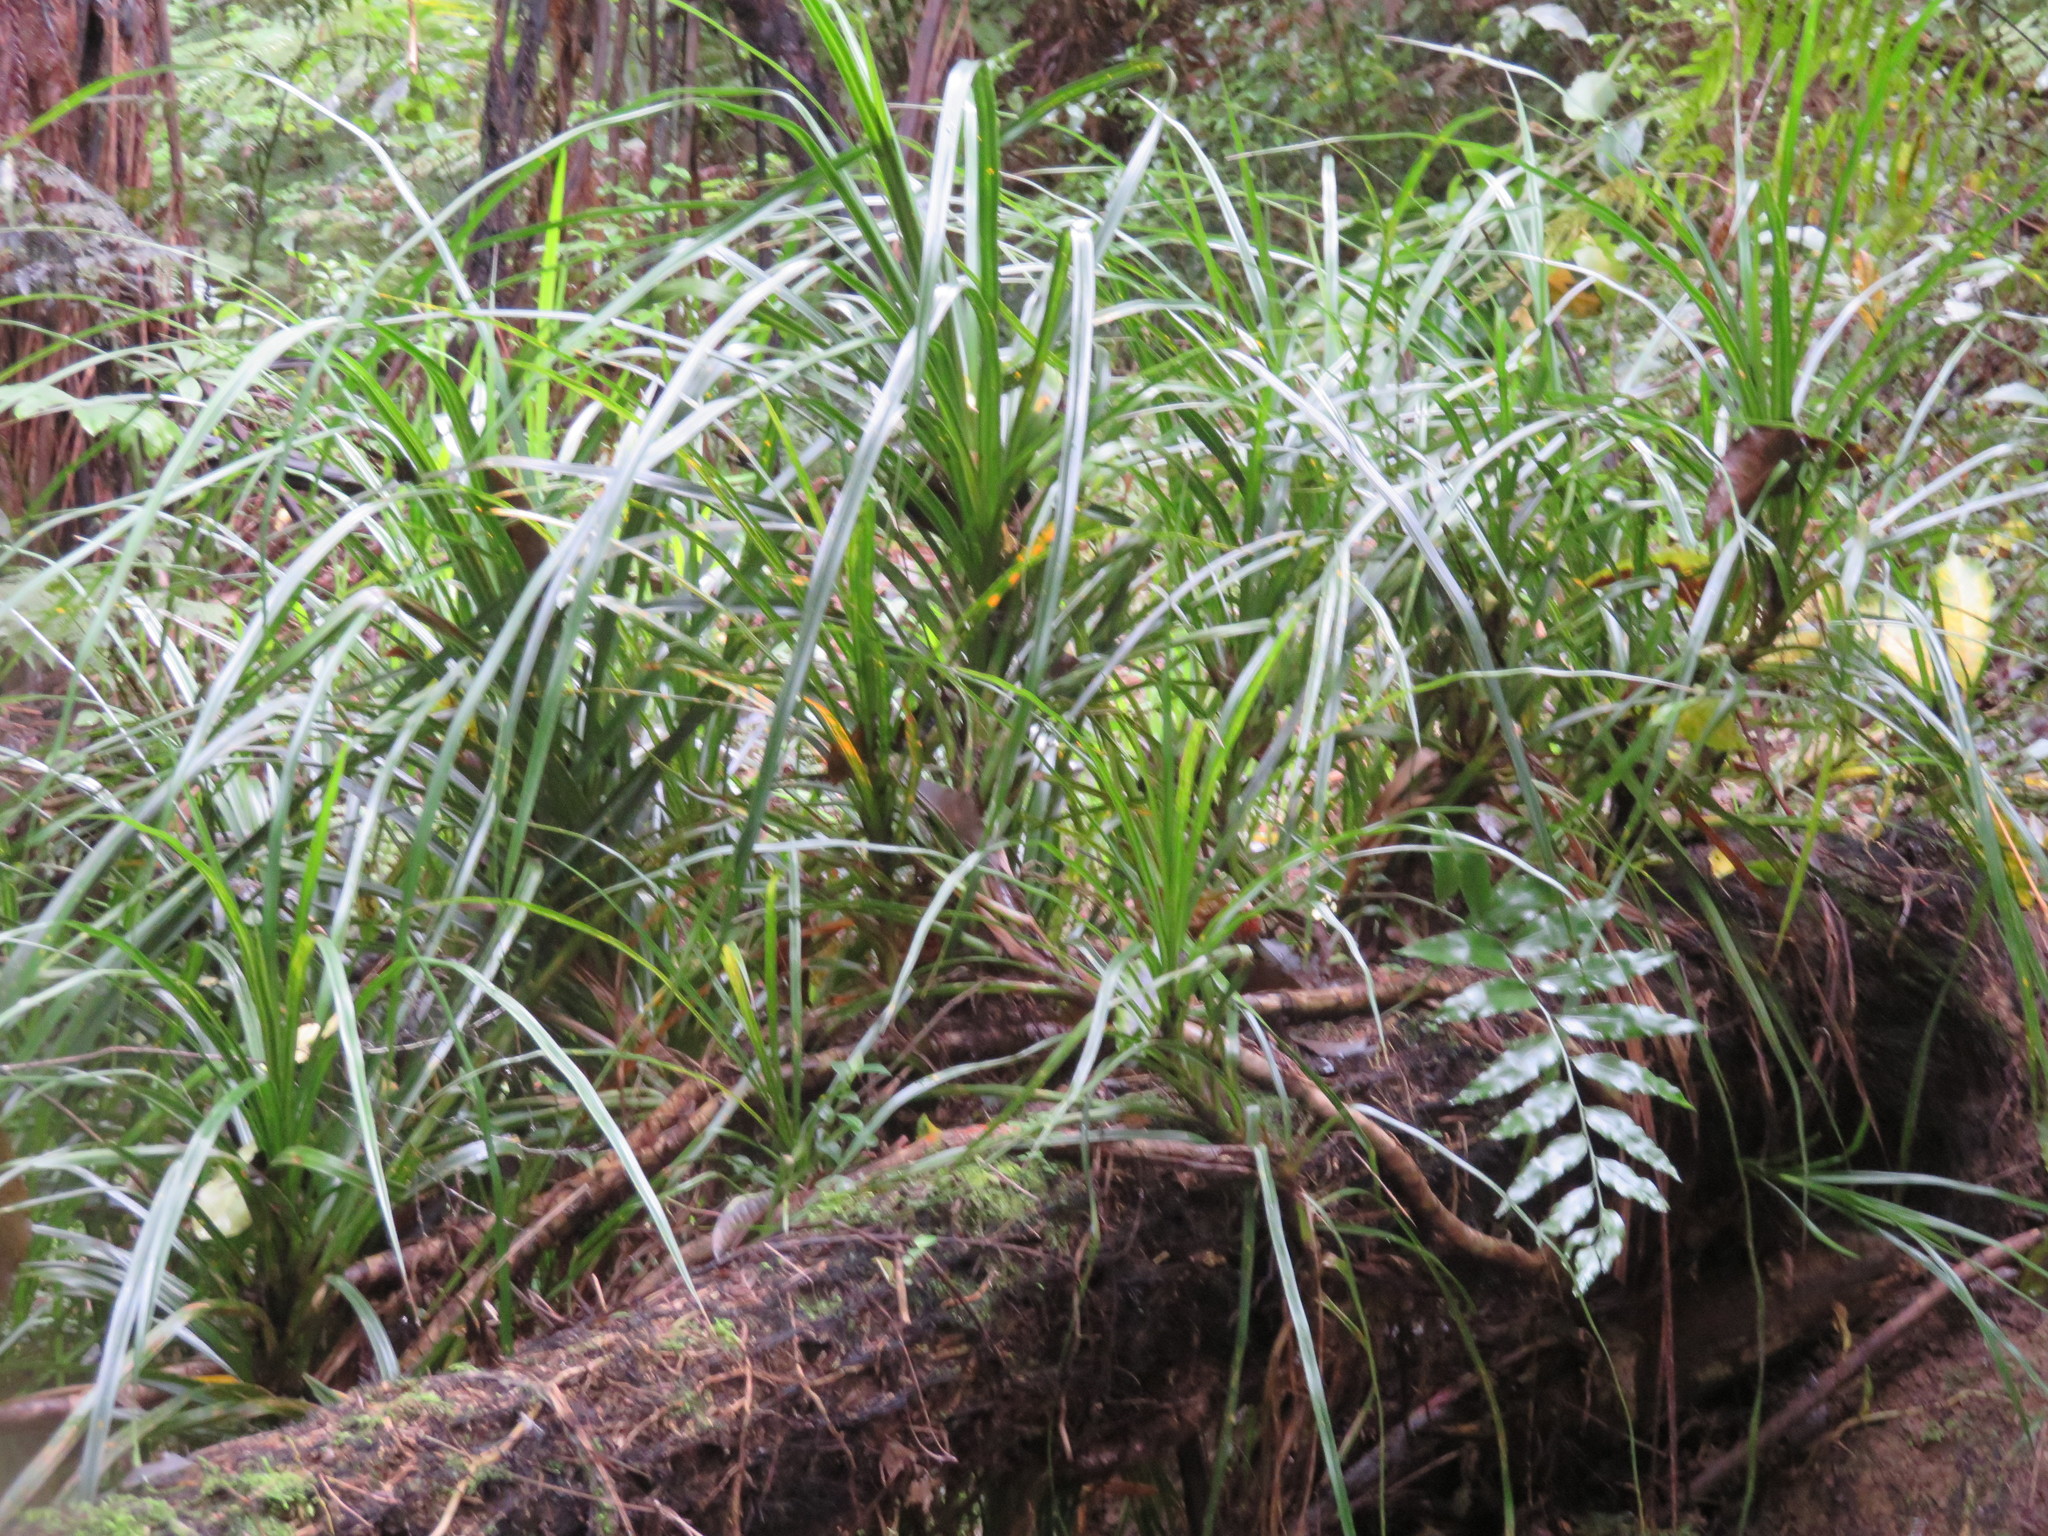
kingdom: Plantae
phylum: Tracheophyta
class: Liliopsida
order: Pandanales
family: Pandanaceae
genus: Freycinetia
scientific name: Freycinetia banksii
